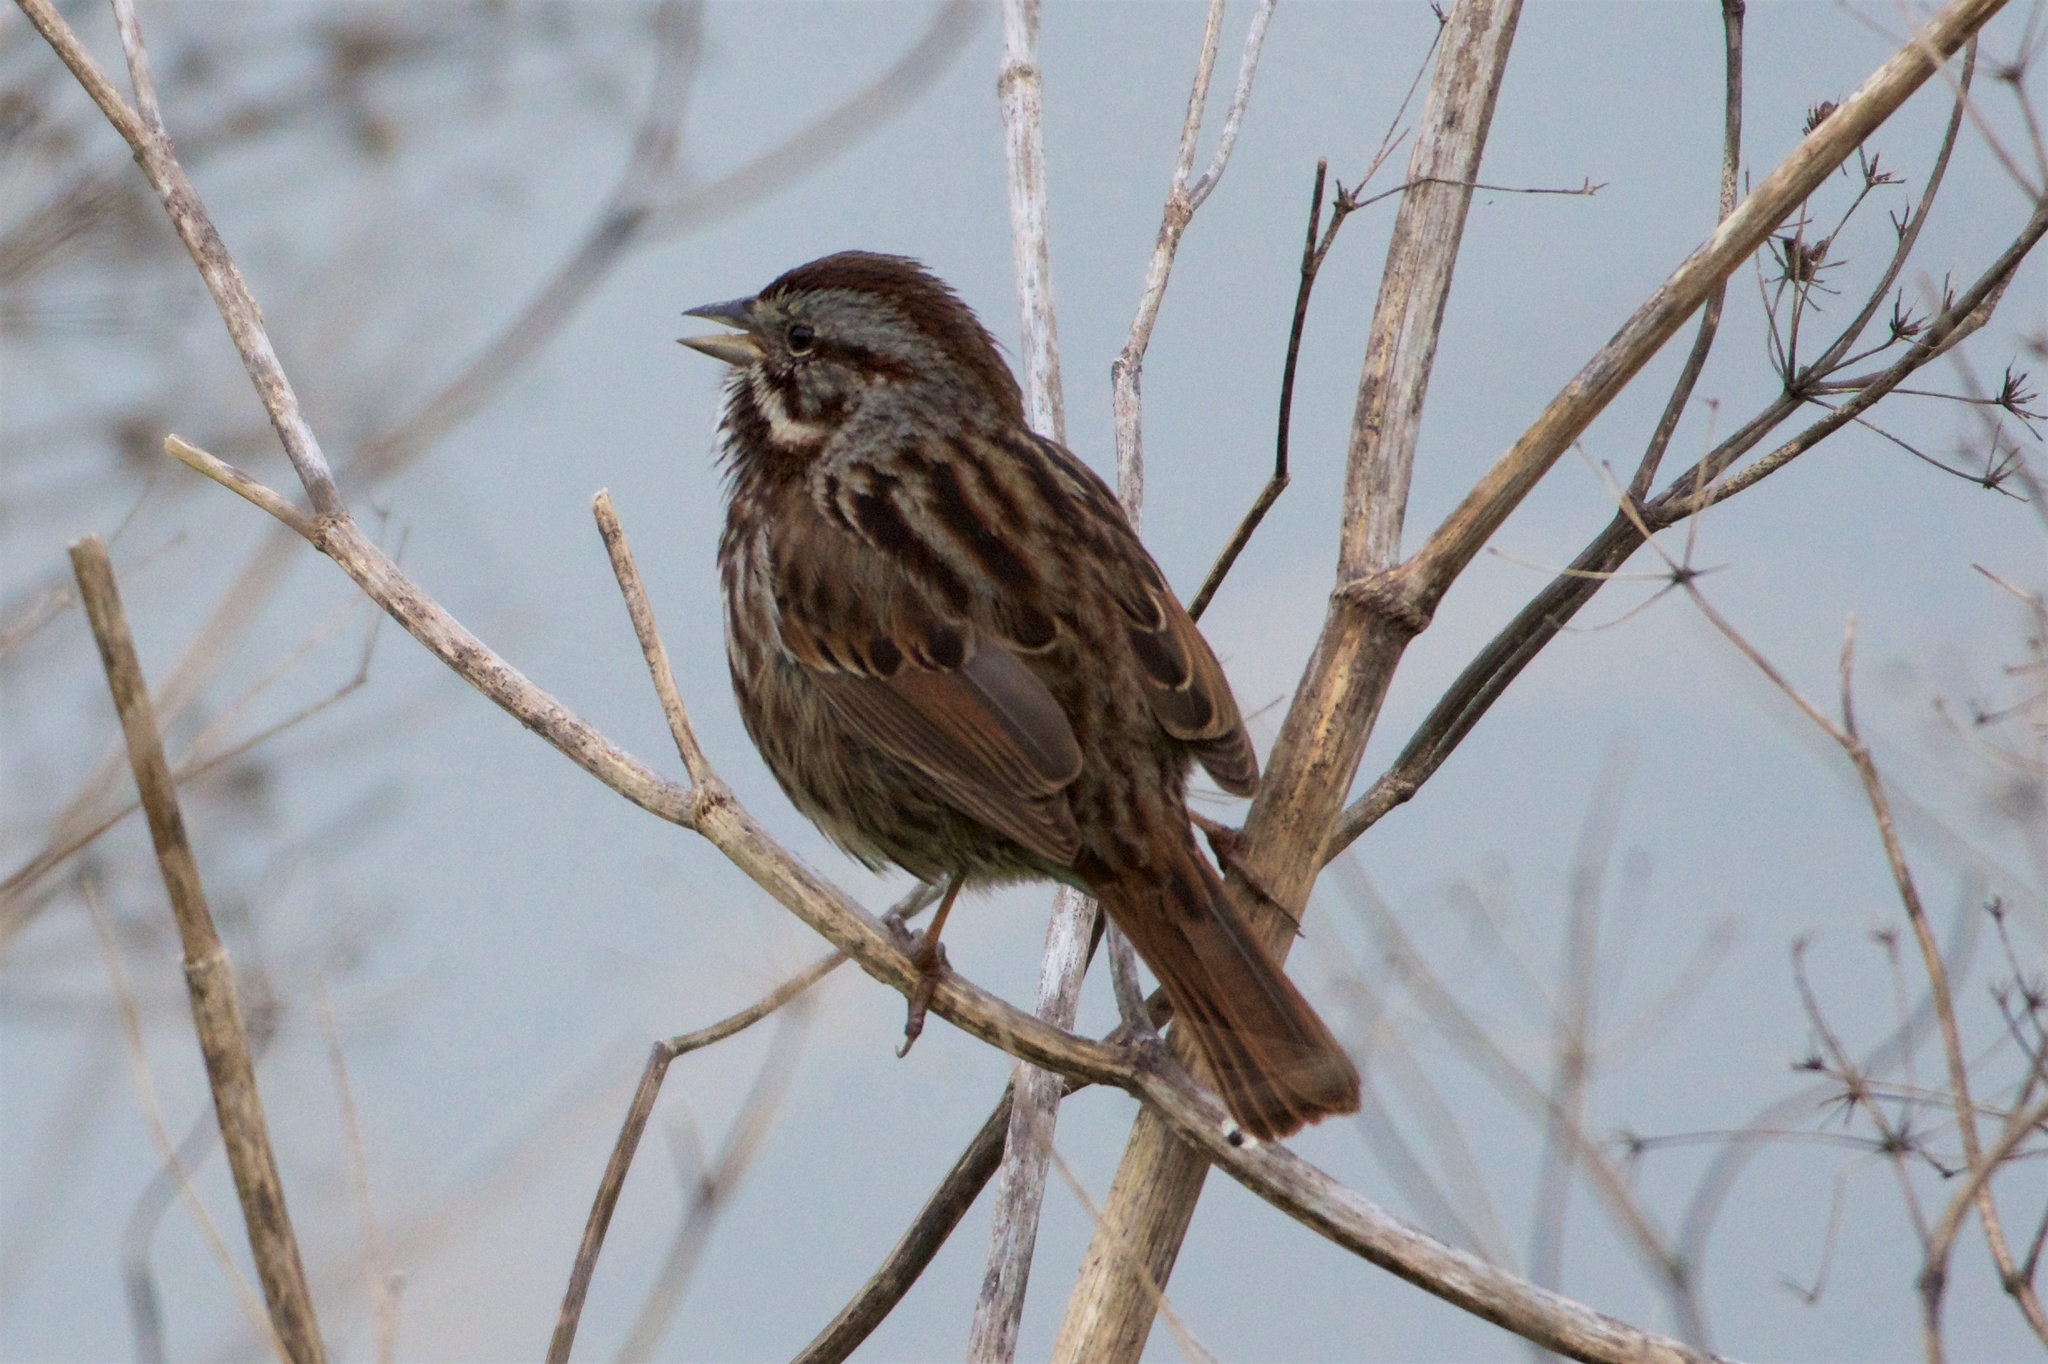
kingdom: Animalia
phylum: Chordata
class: Aves
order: Passeriformes
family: Passerellidae
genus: Melospiza
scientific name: Melospiza melodia
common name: Song sparrow
